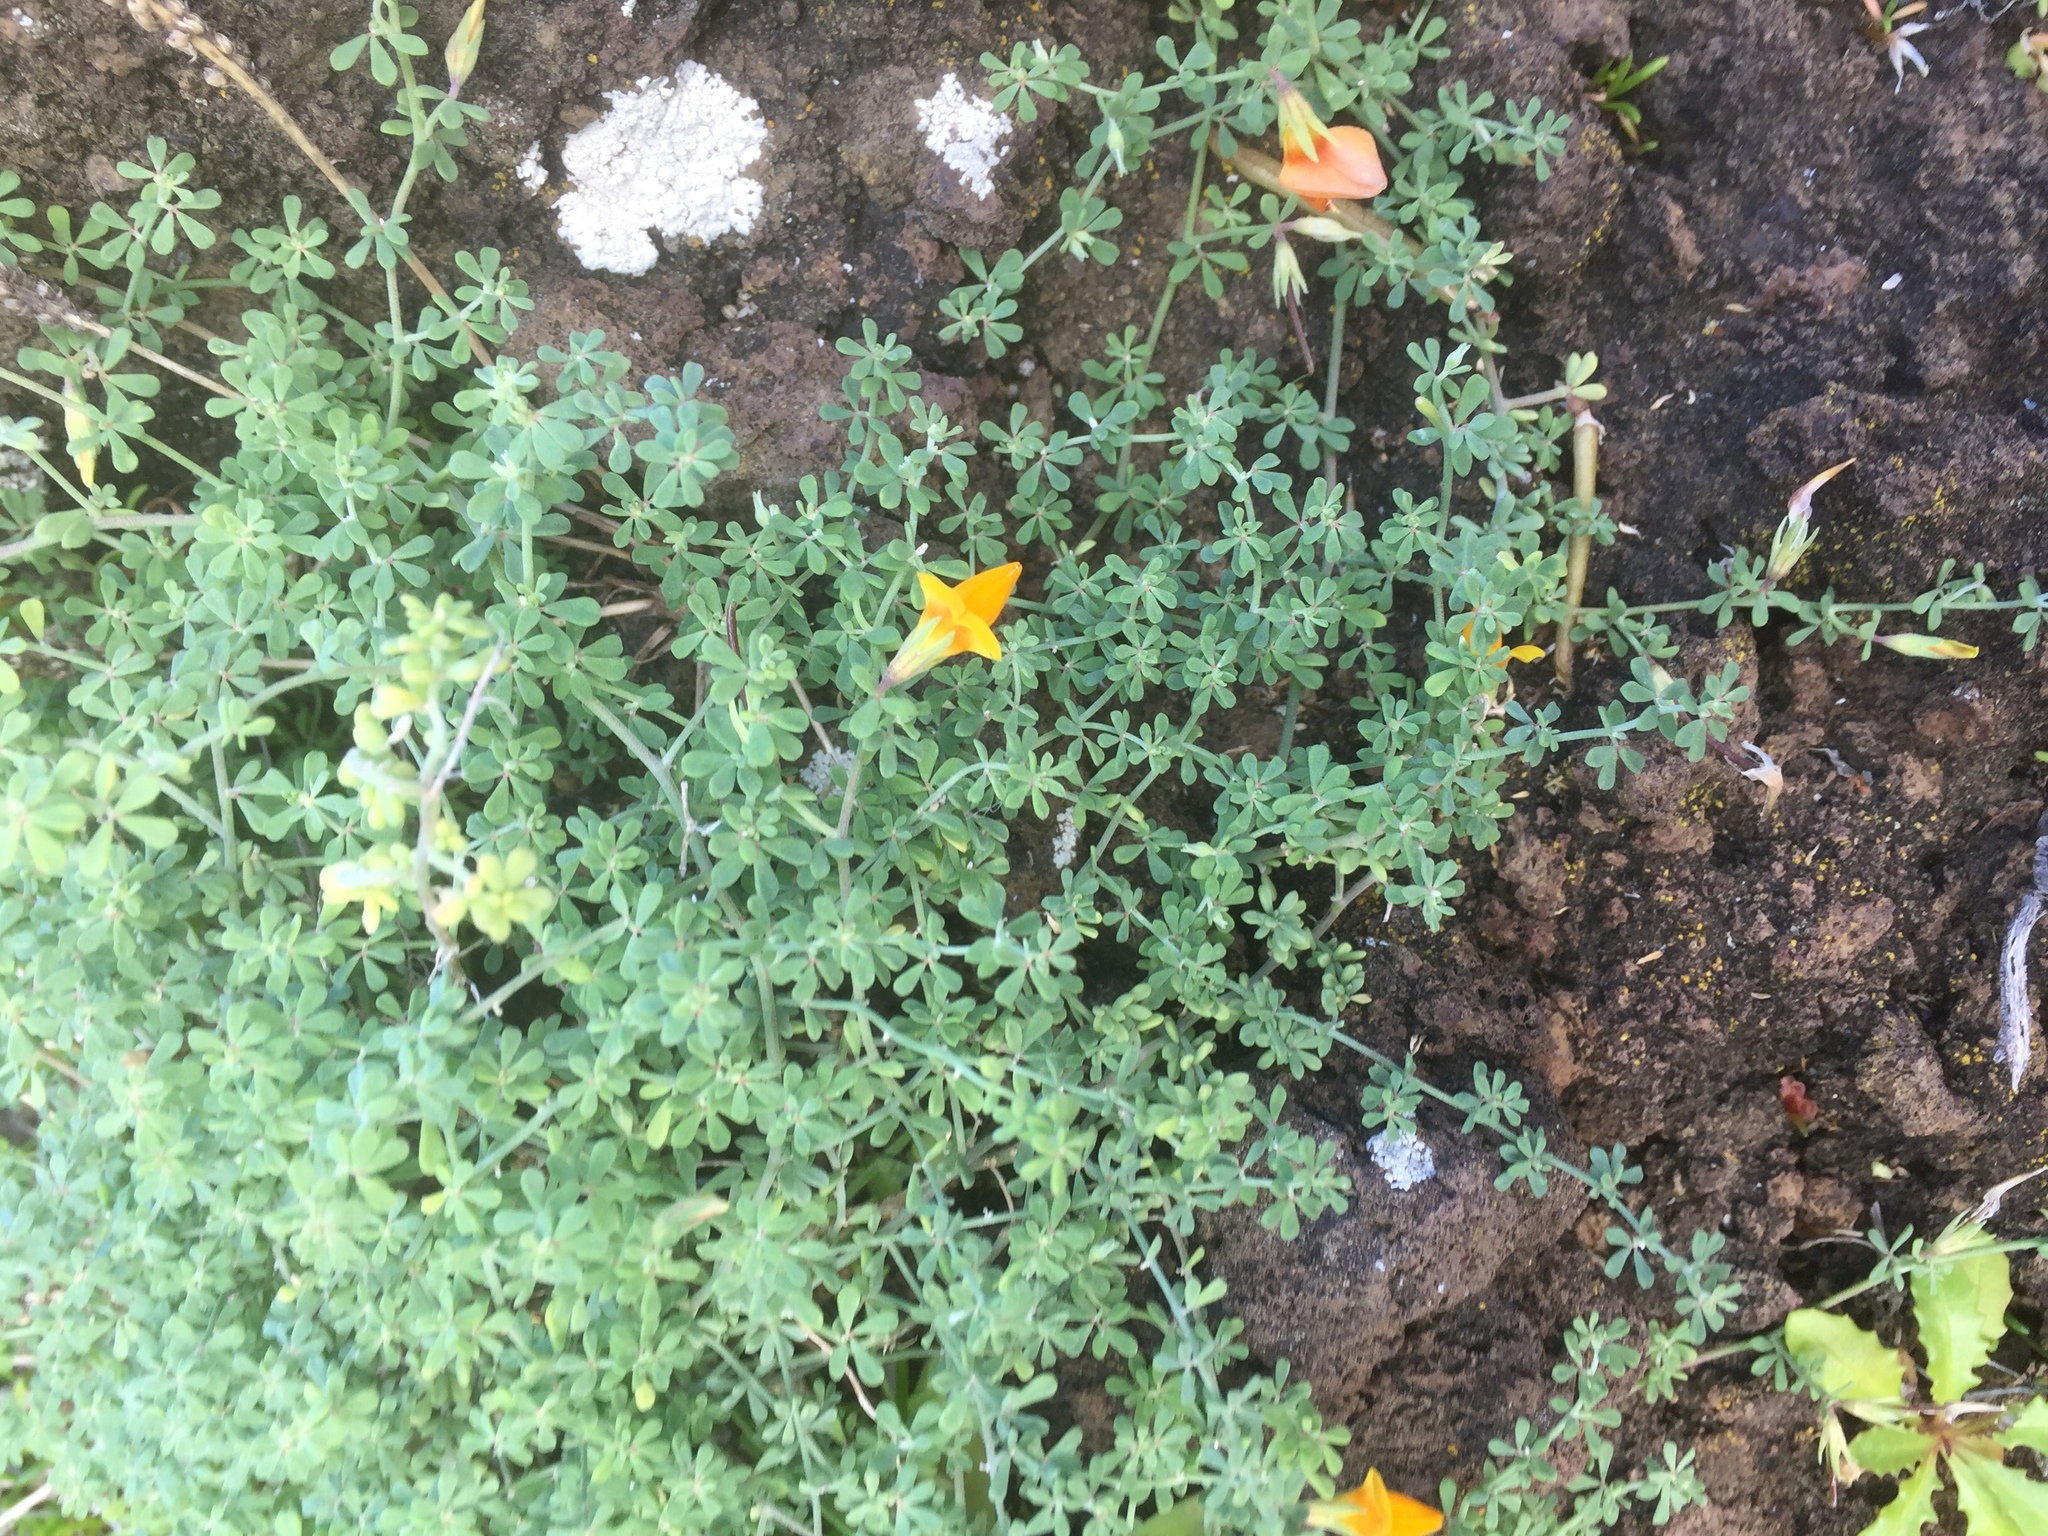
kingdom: Plantae
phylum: Tracheophyta
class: Magnoliopsida
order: Fabales
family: Fabaceae
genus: Lotus
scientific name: Lotus glaucus
